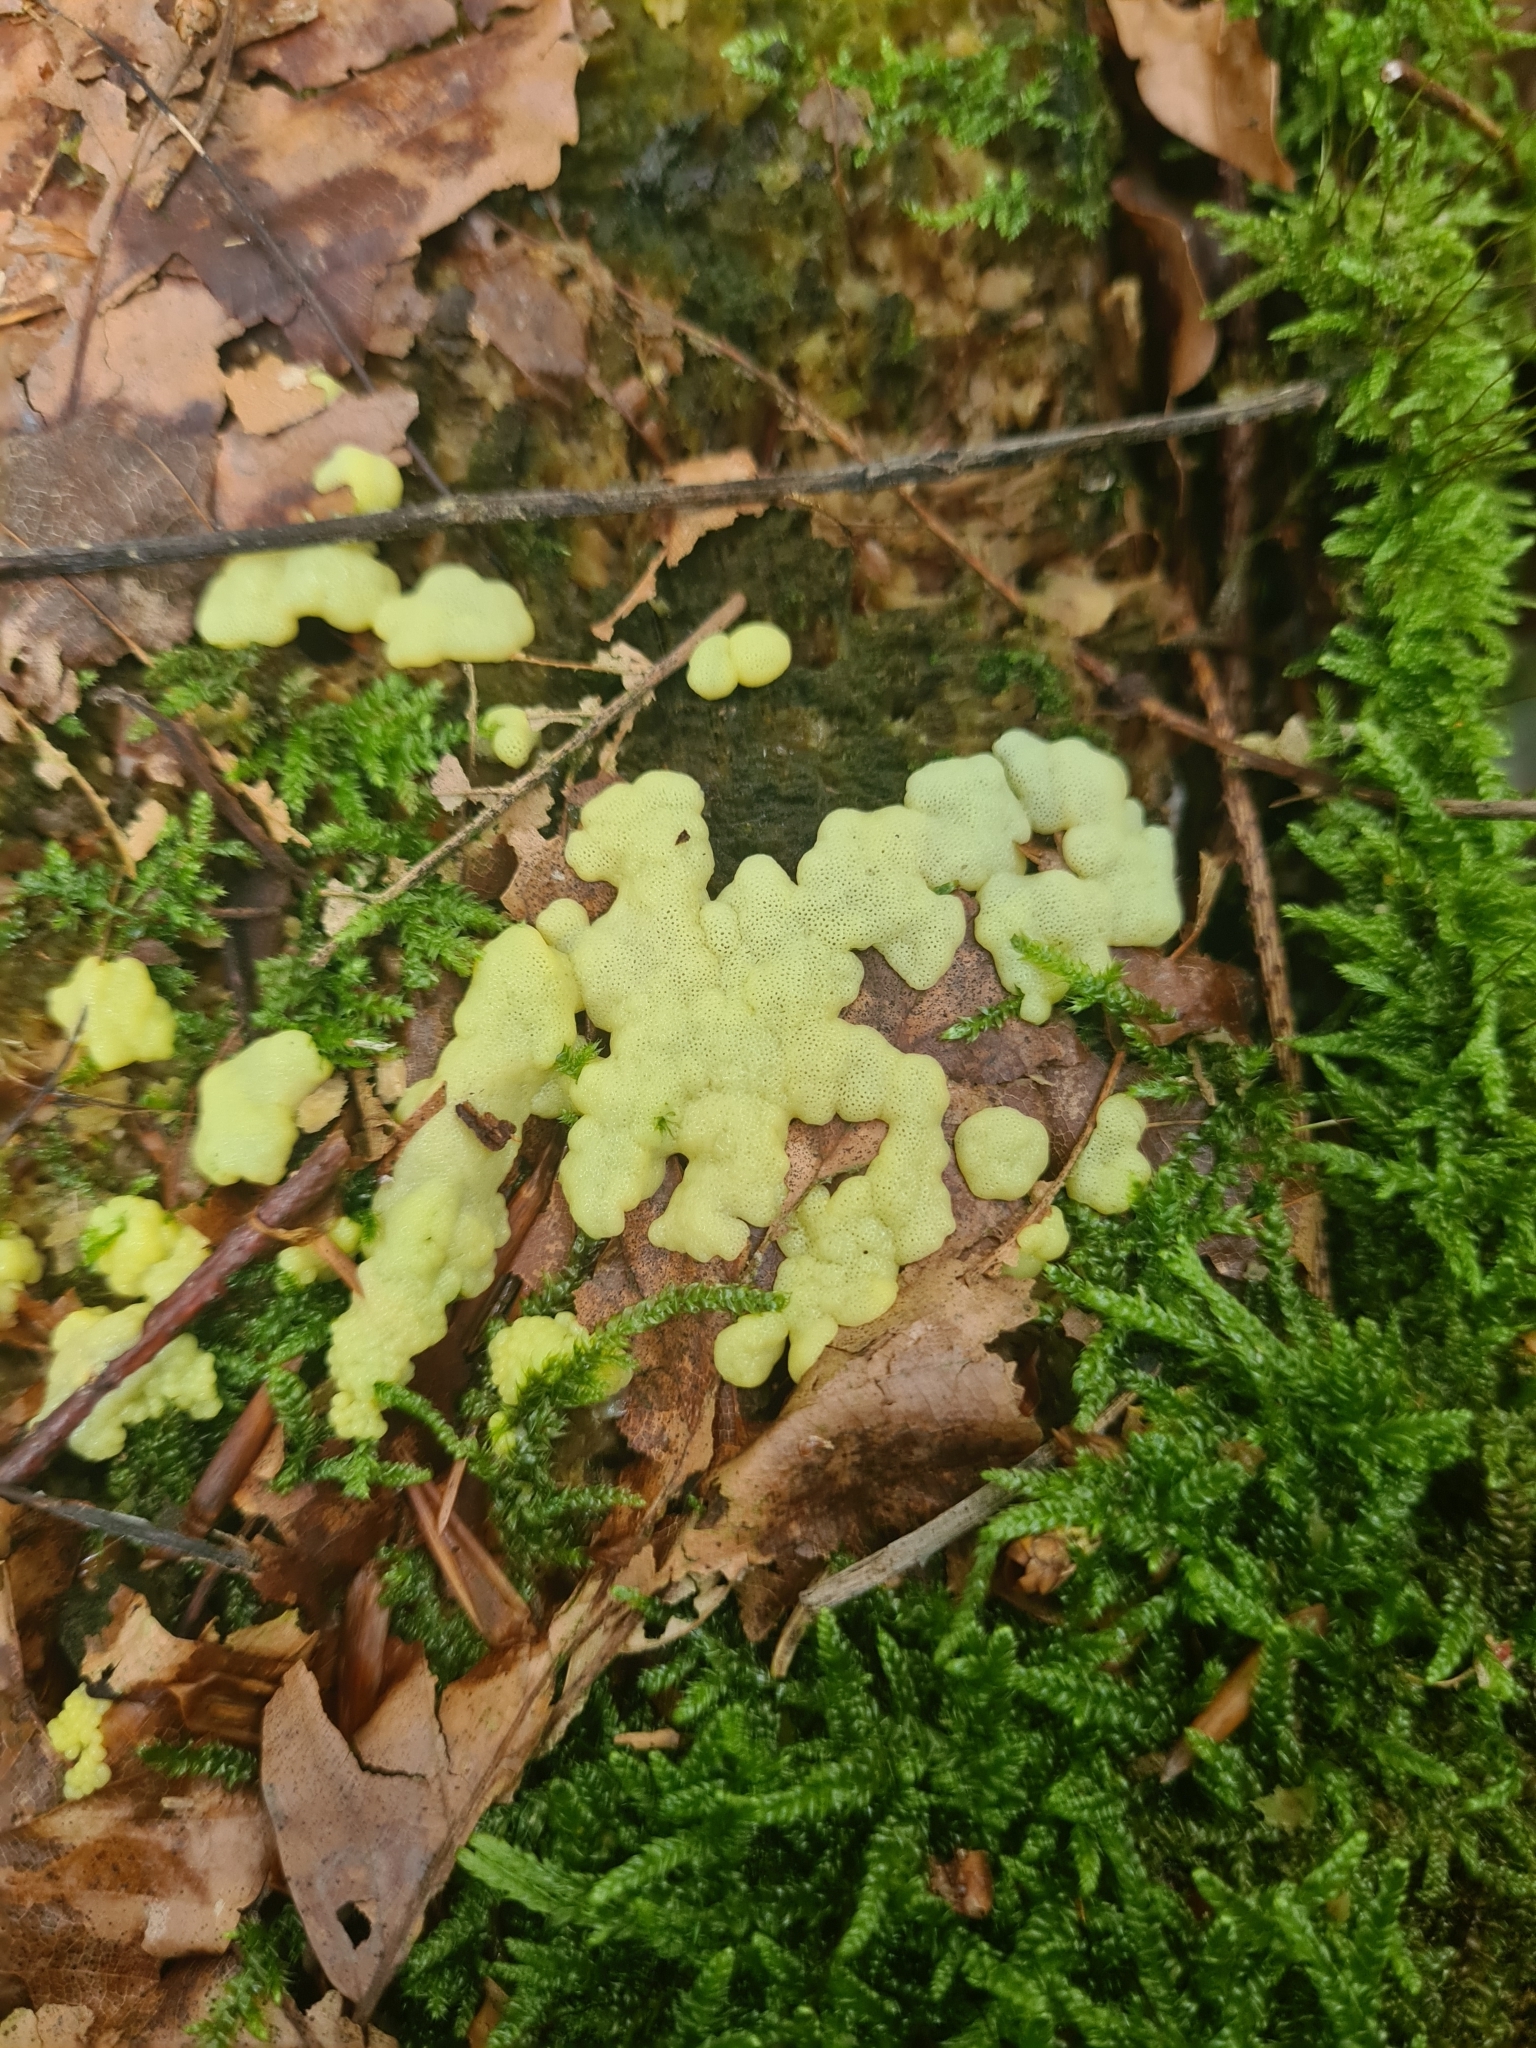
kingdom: Protozoa
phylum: Mycetozoa
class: Protosteliomycetes
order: Ceratiomyxales
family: Ceratiomyxaceae
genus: Ceratiomyxa
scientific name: Ceratiomyxa fruticulosa
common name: Honeycomb coral slime mold
